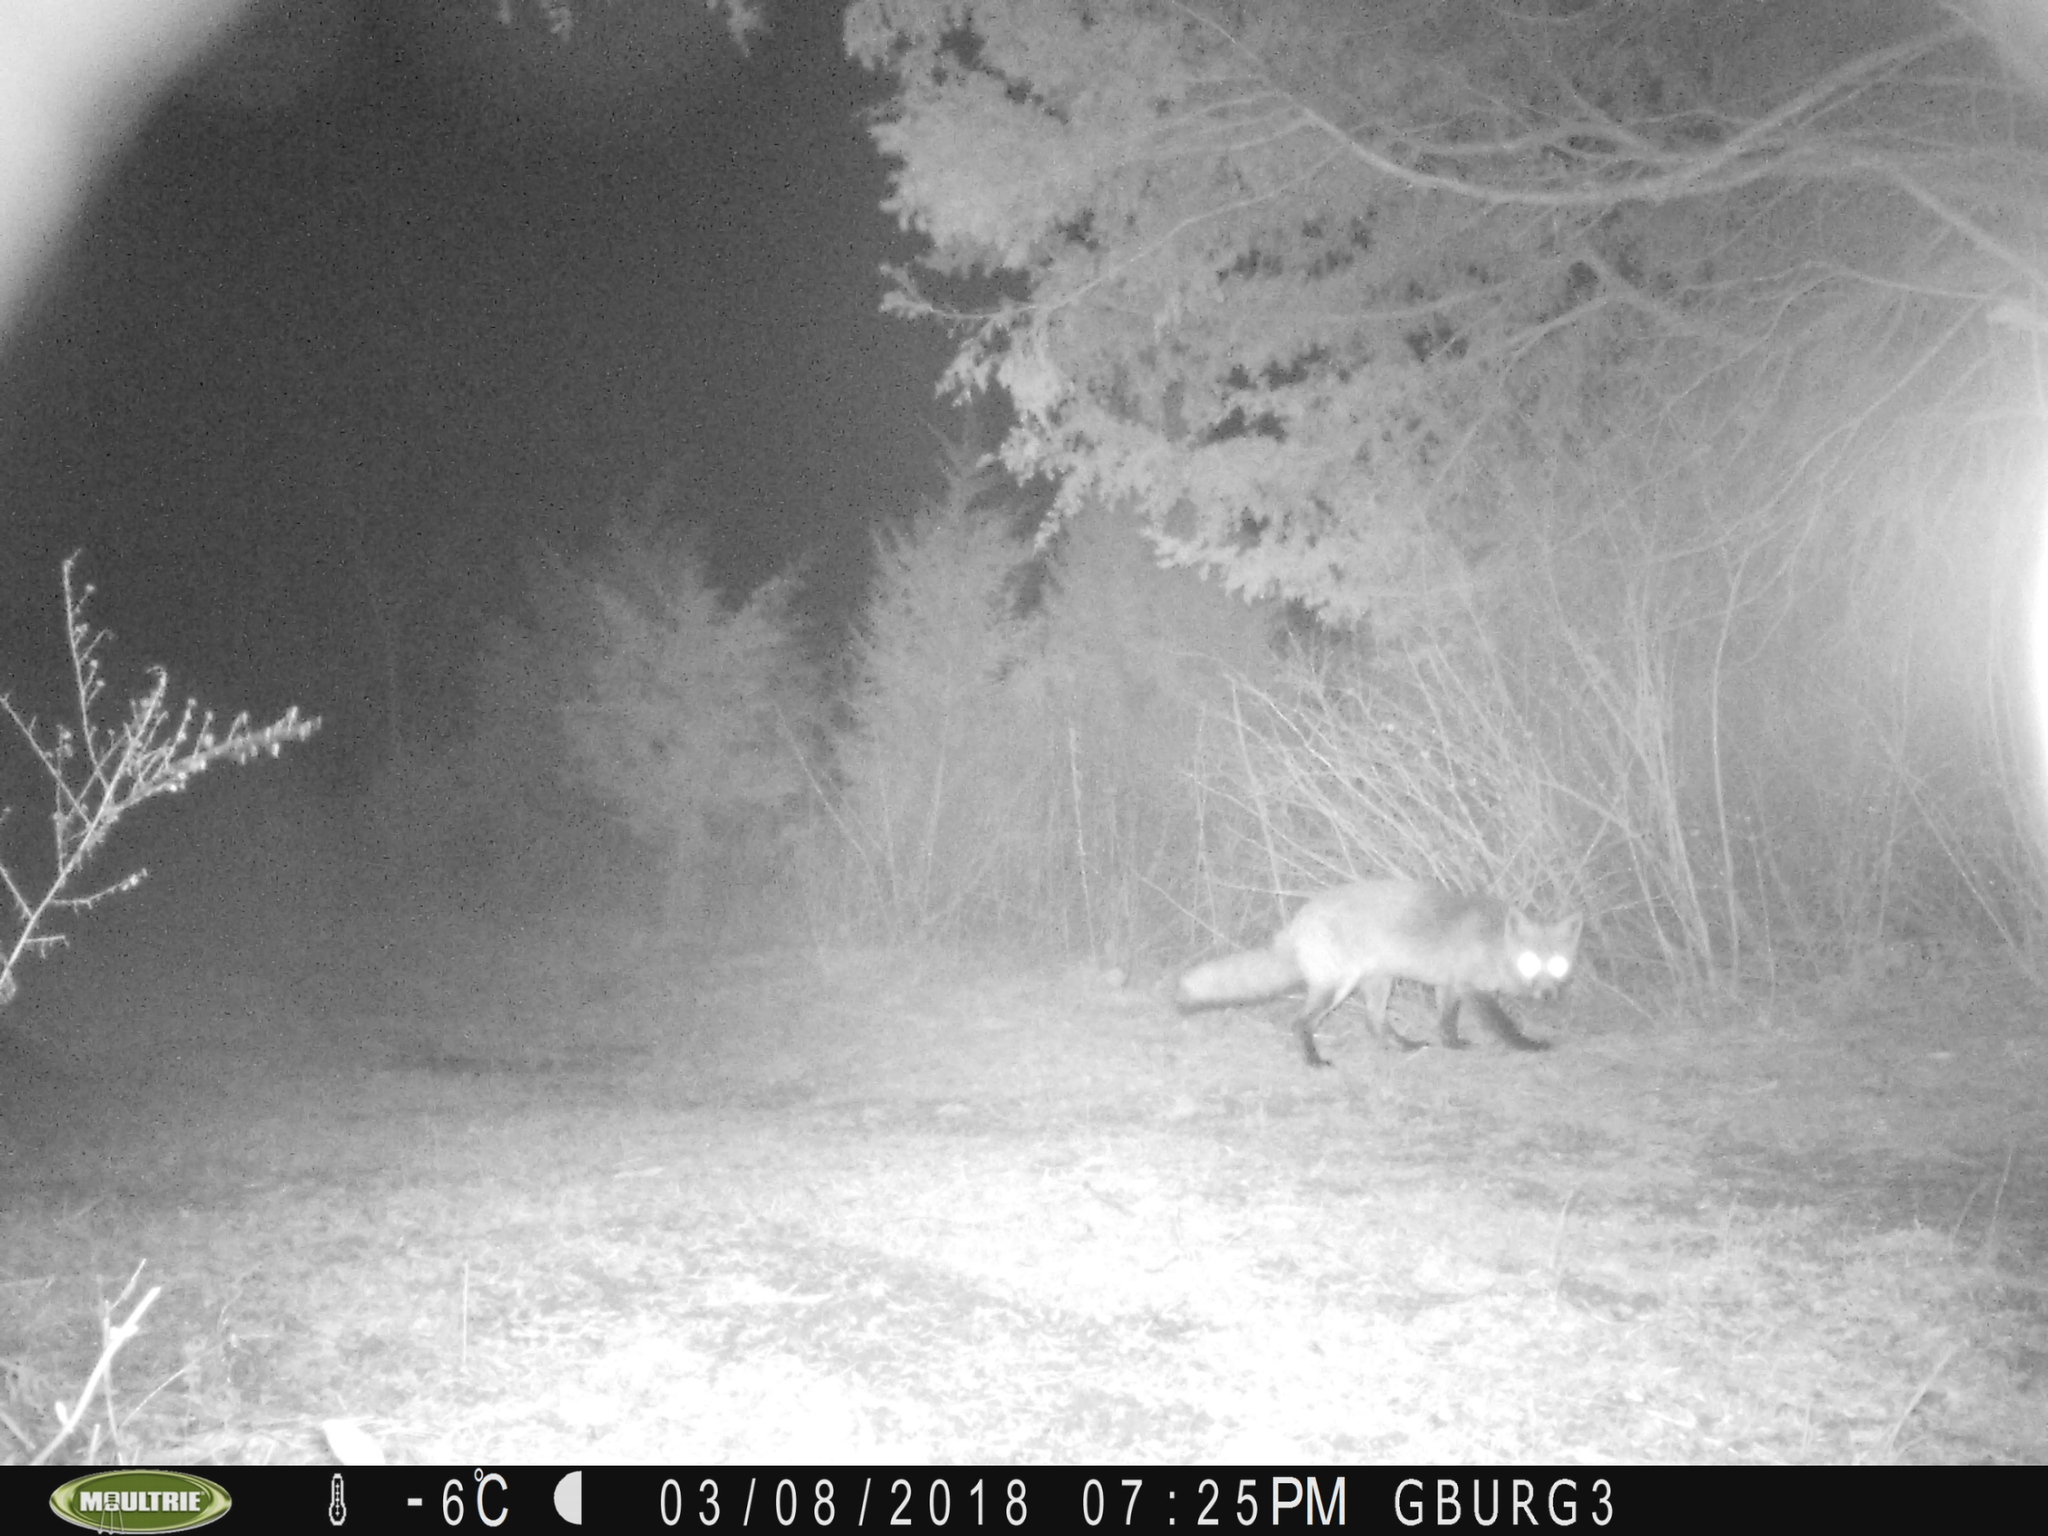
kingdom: Animalia
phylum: Chordata
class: Mammalia
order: Carnivora
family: Canidae
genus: Vulpes
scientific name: Vulpes vulpes
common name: Red fox
